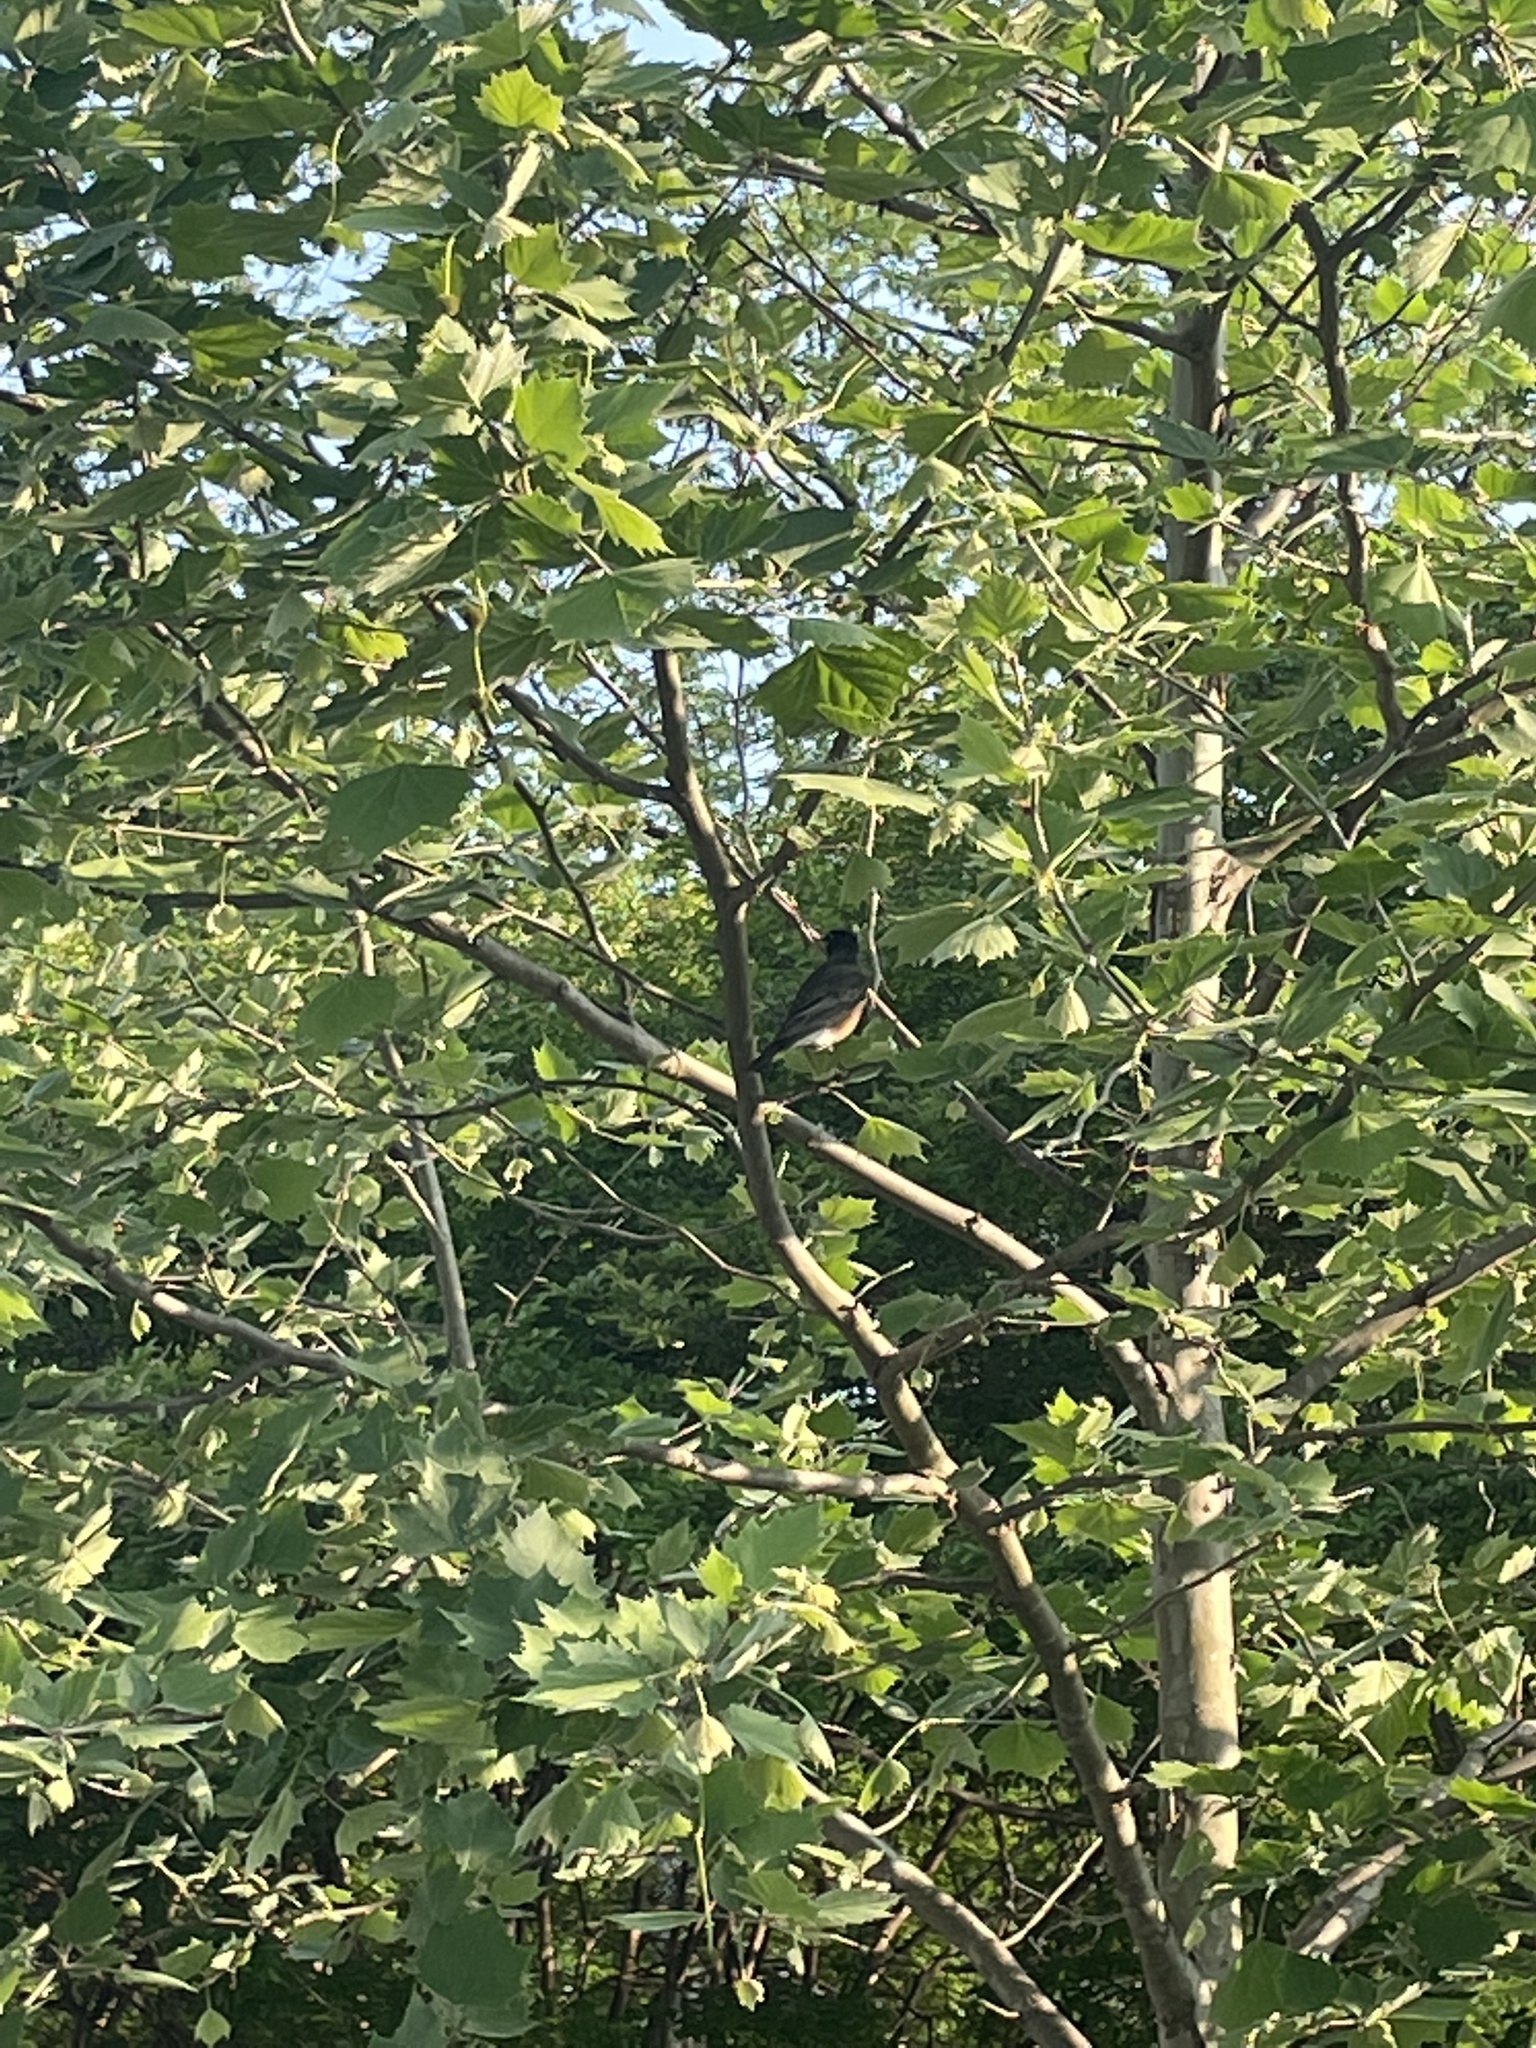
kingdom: Animalia
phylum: Chordata
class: Aves
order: Passeriformes
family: Turdidae
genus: Turdus
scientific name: Turdus migratorius
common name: American robin
